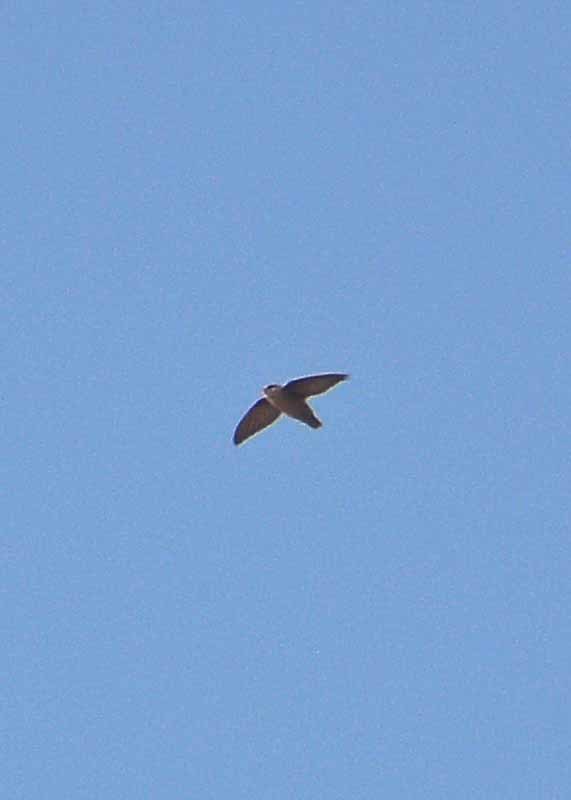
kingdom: Animalia
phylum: Chordata
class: Aves
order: Apodiformes
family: Apodidae
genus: Chaetura
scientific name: Chaetura vauxi
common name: Vaux's swift
